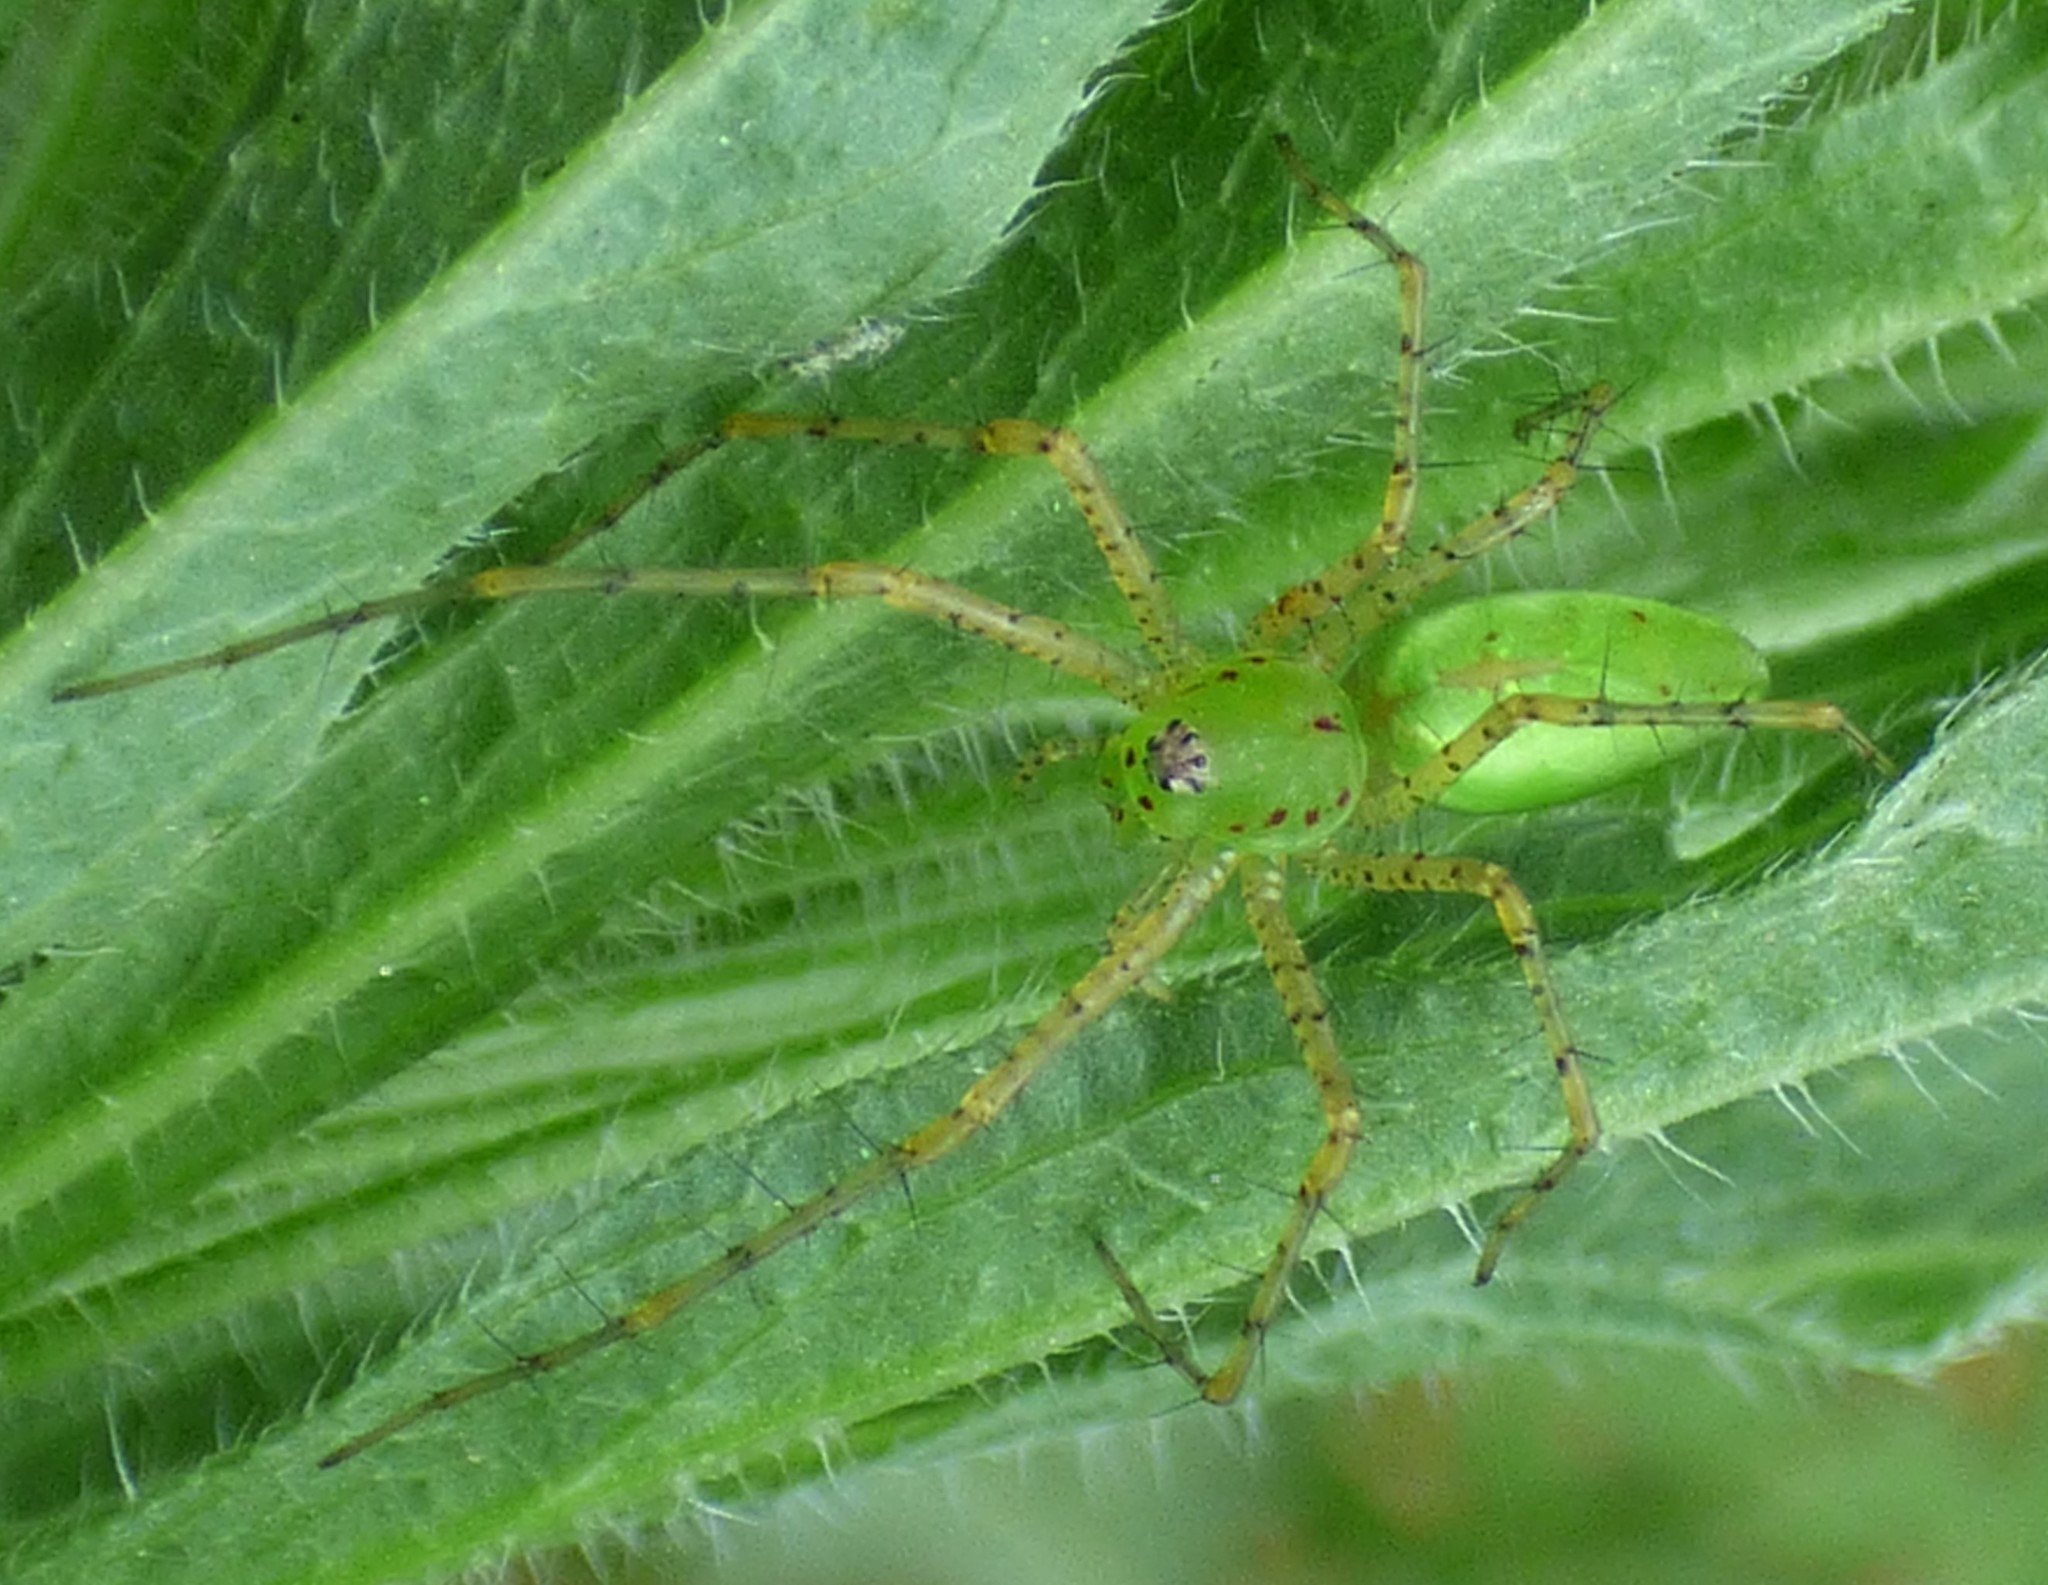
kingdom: Animalia
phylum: Arthropoda
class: Arachnida
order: Araneae
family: Oxyopidae
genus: Peucetia
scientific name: Peucetia viridans
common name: Lynx spiders
